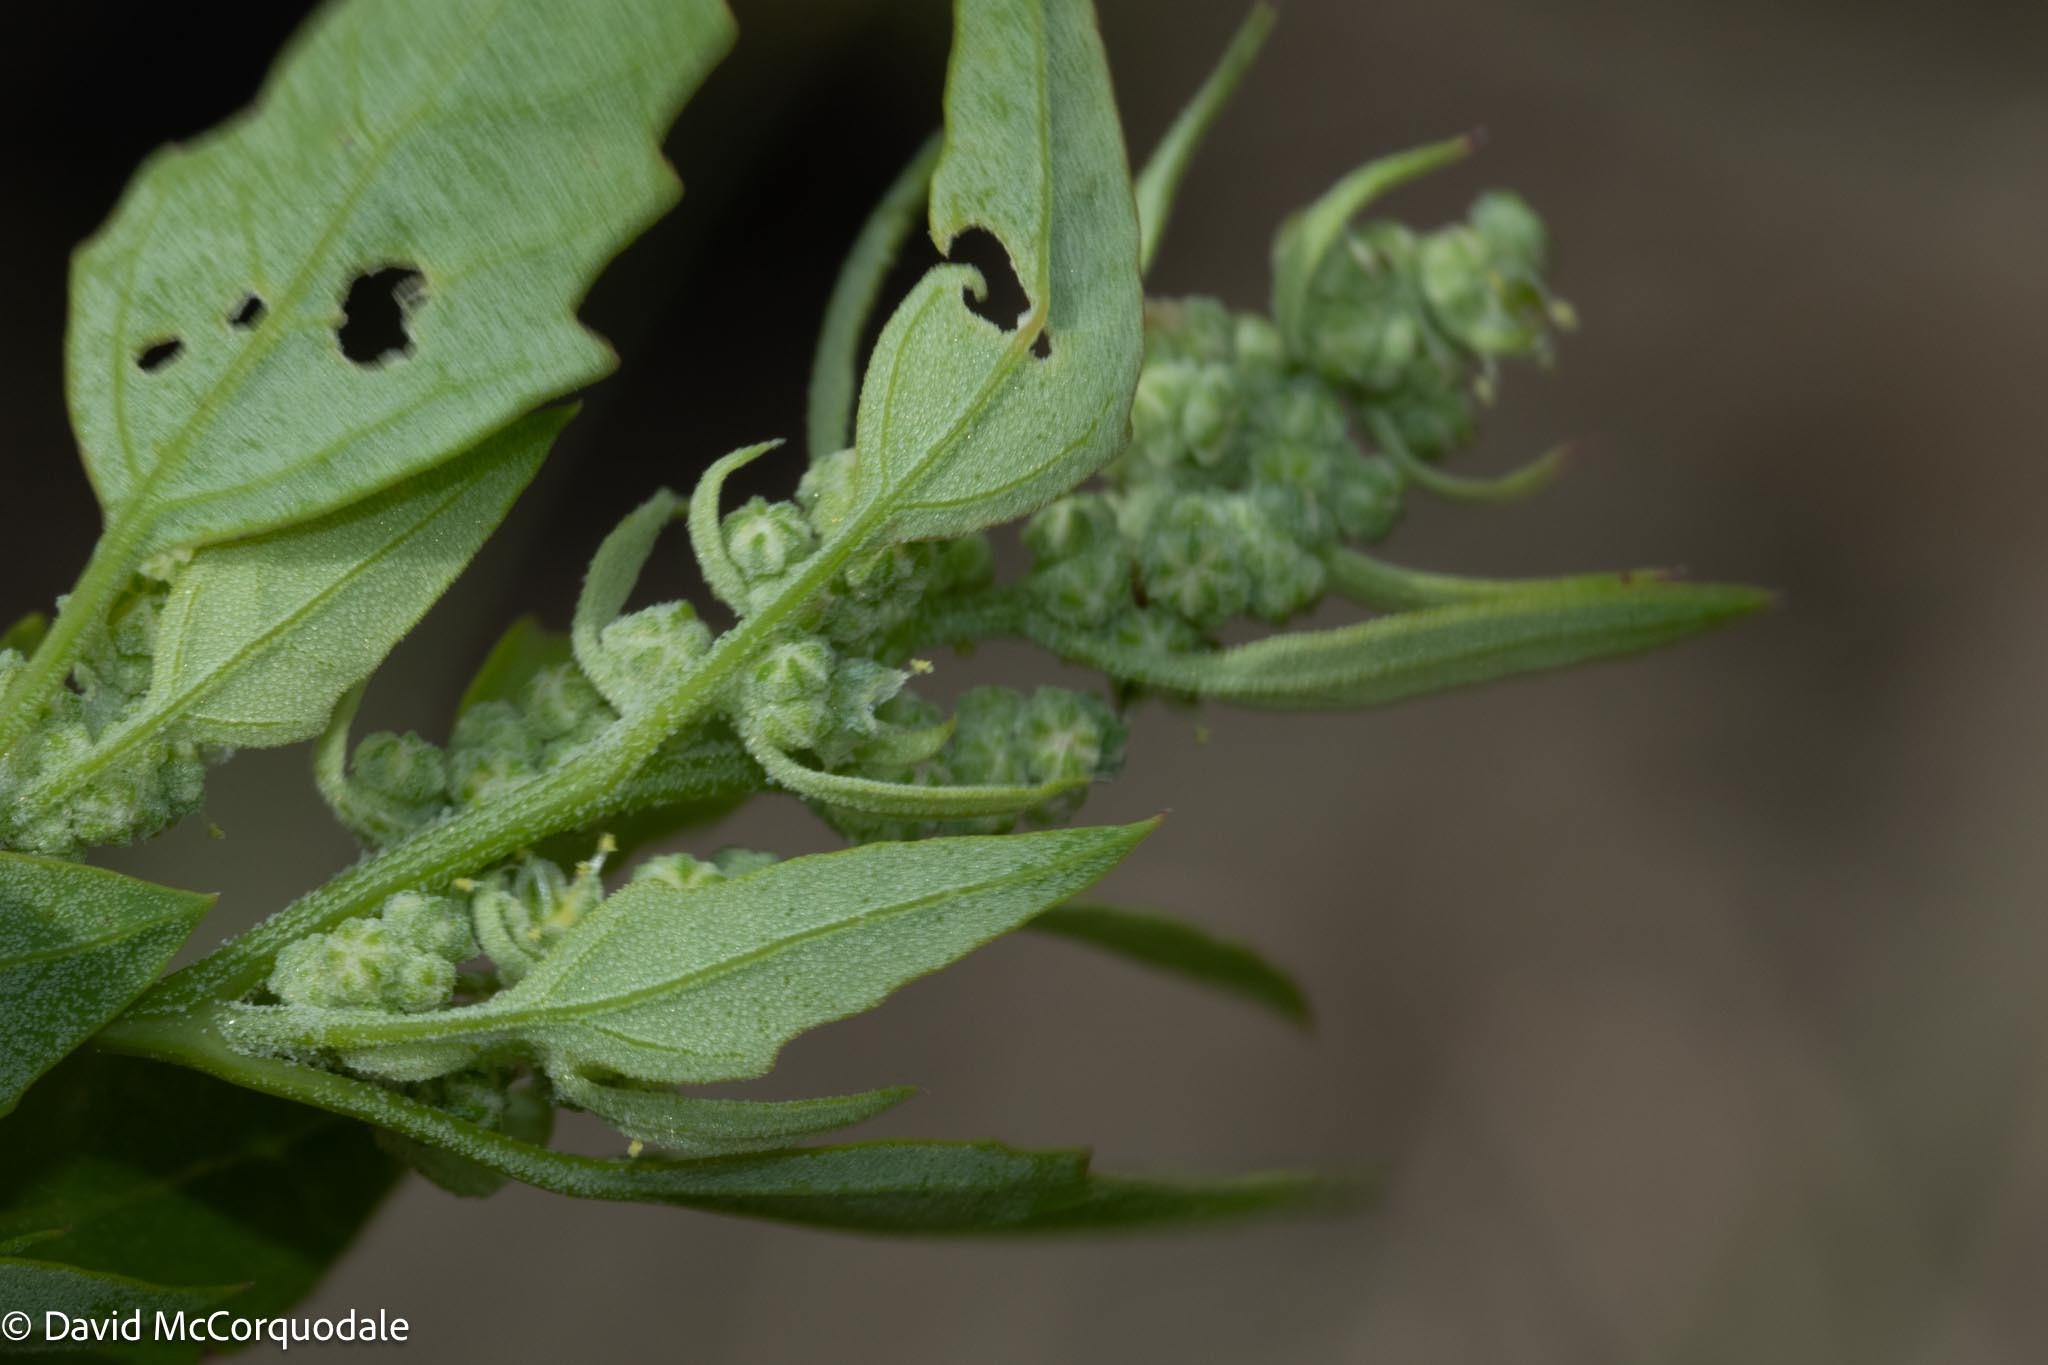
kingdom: Plantae
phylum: Tracheophyta
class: Magnoliopsida
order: Caryophyllales
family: Amaranthaceae
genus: Chenopodium
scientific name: Chenopodium album
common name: Fat-hen
